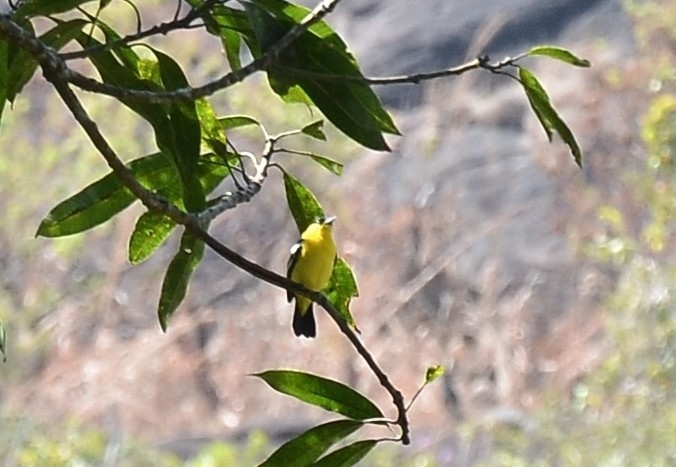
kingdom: Animalia
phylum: Chordata
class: Aves
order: Passeriformes
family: Aegithinidae
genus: Aegithina
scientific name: Aegithina tiphia
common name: Common iora
